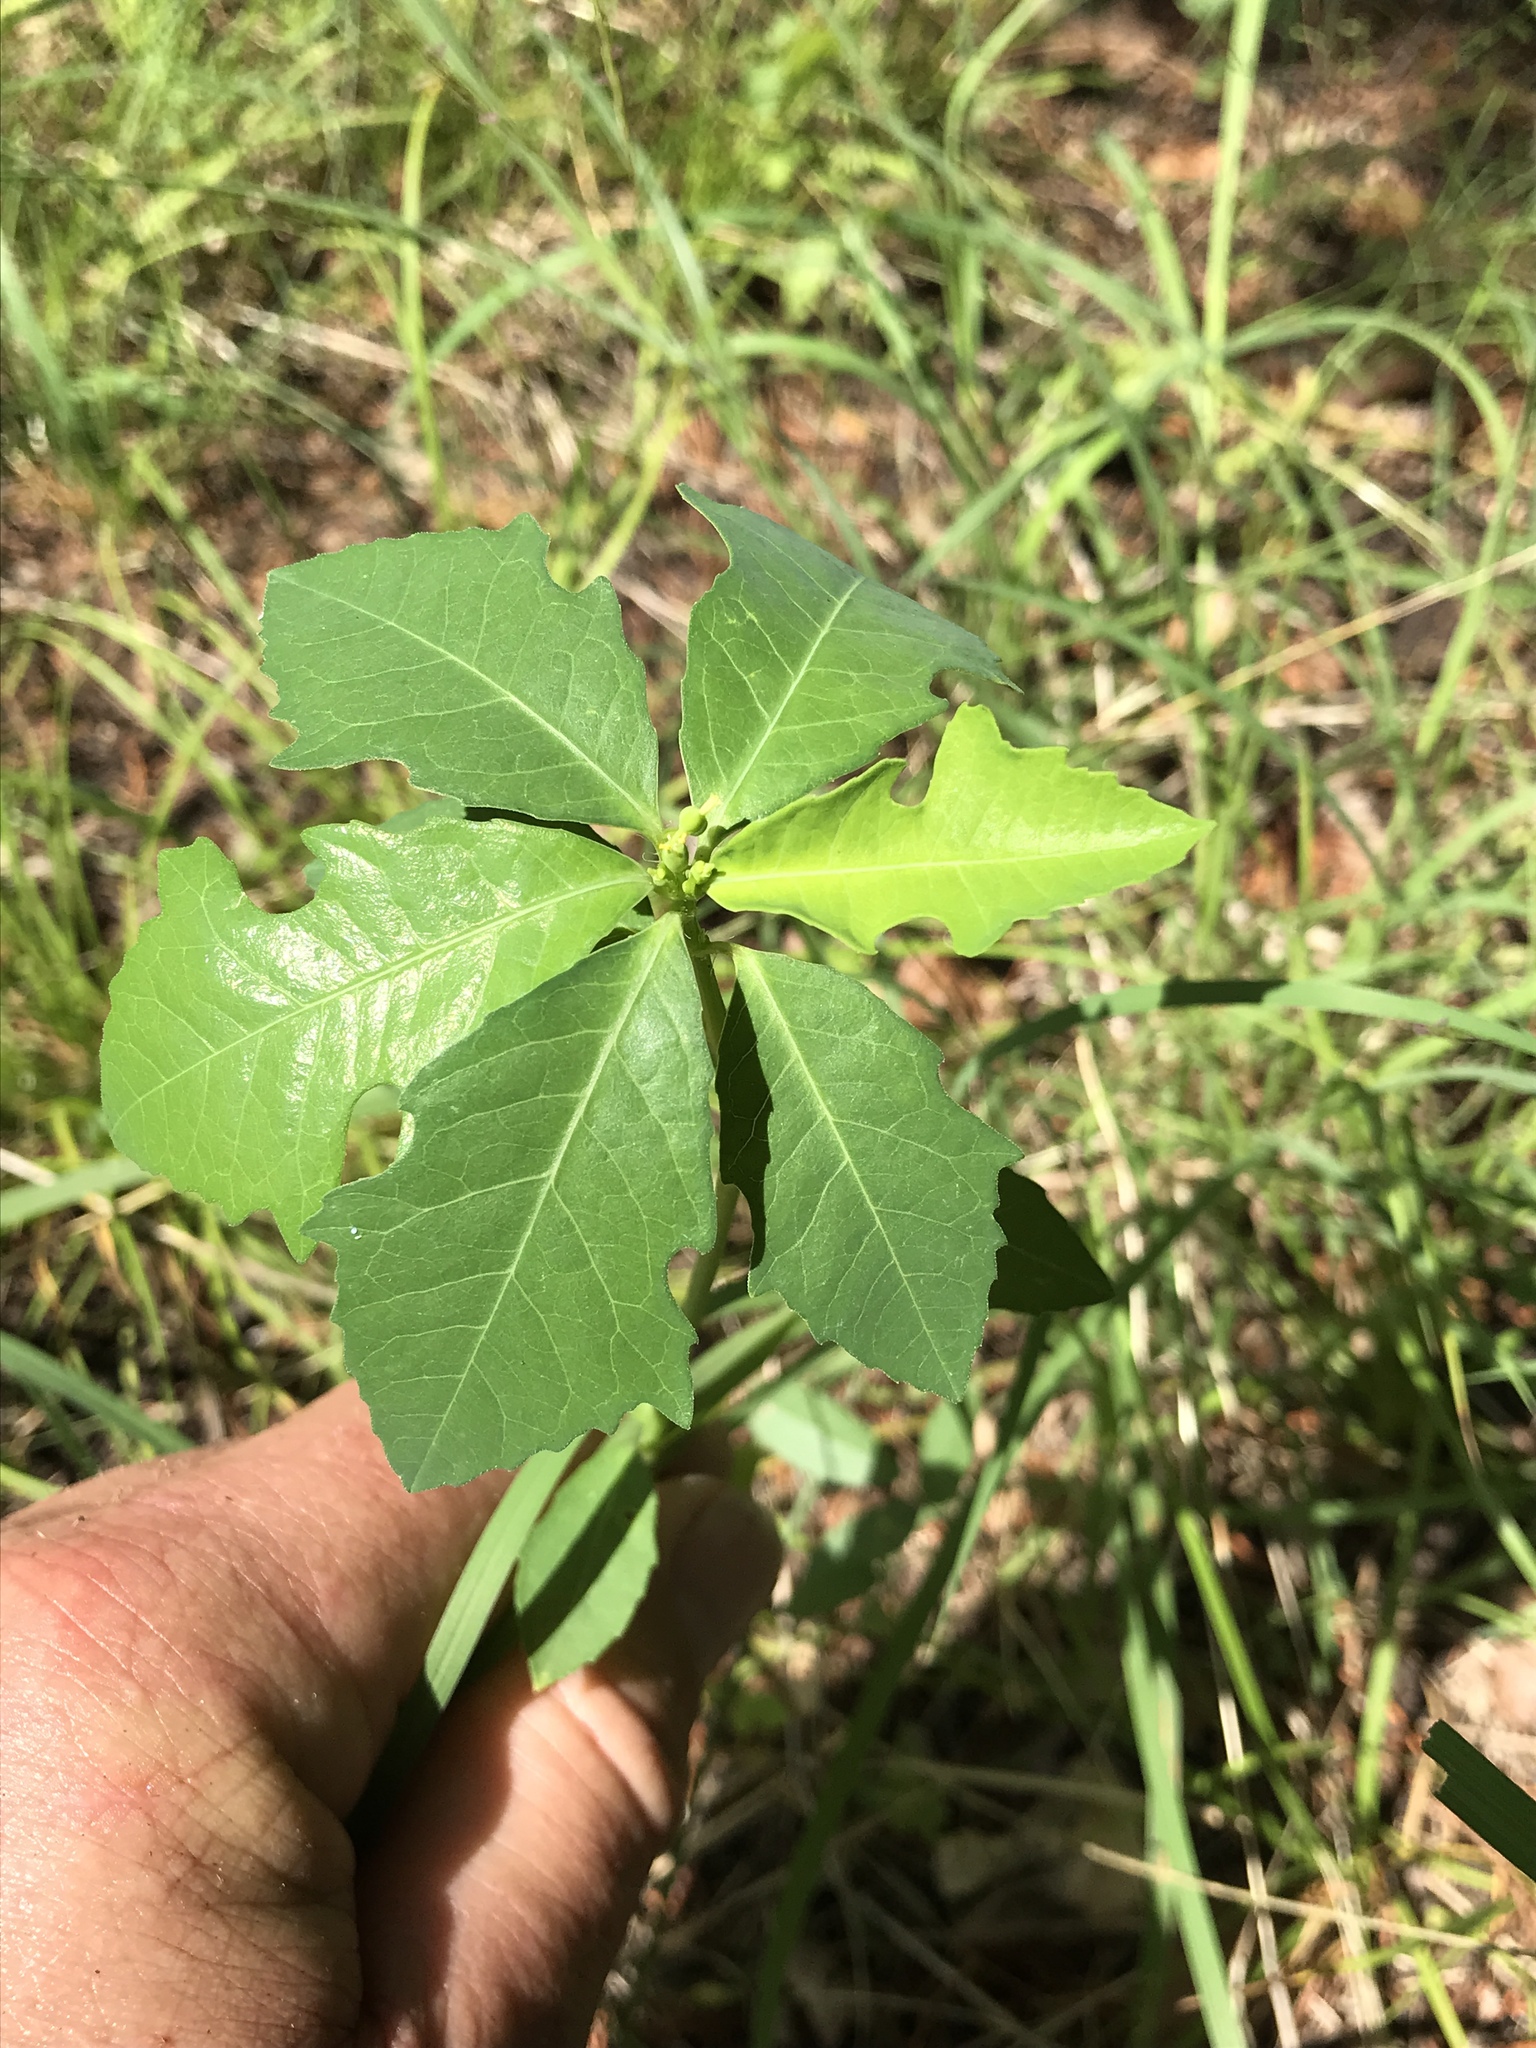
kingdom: Plantae
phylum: Tracheophyta
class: Magnoliopsida
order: Malpighiales
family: Euphorbiaceae
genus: Euphorbia
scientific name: Euphorbia heterophylla
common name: Mexican fireplant
